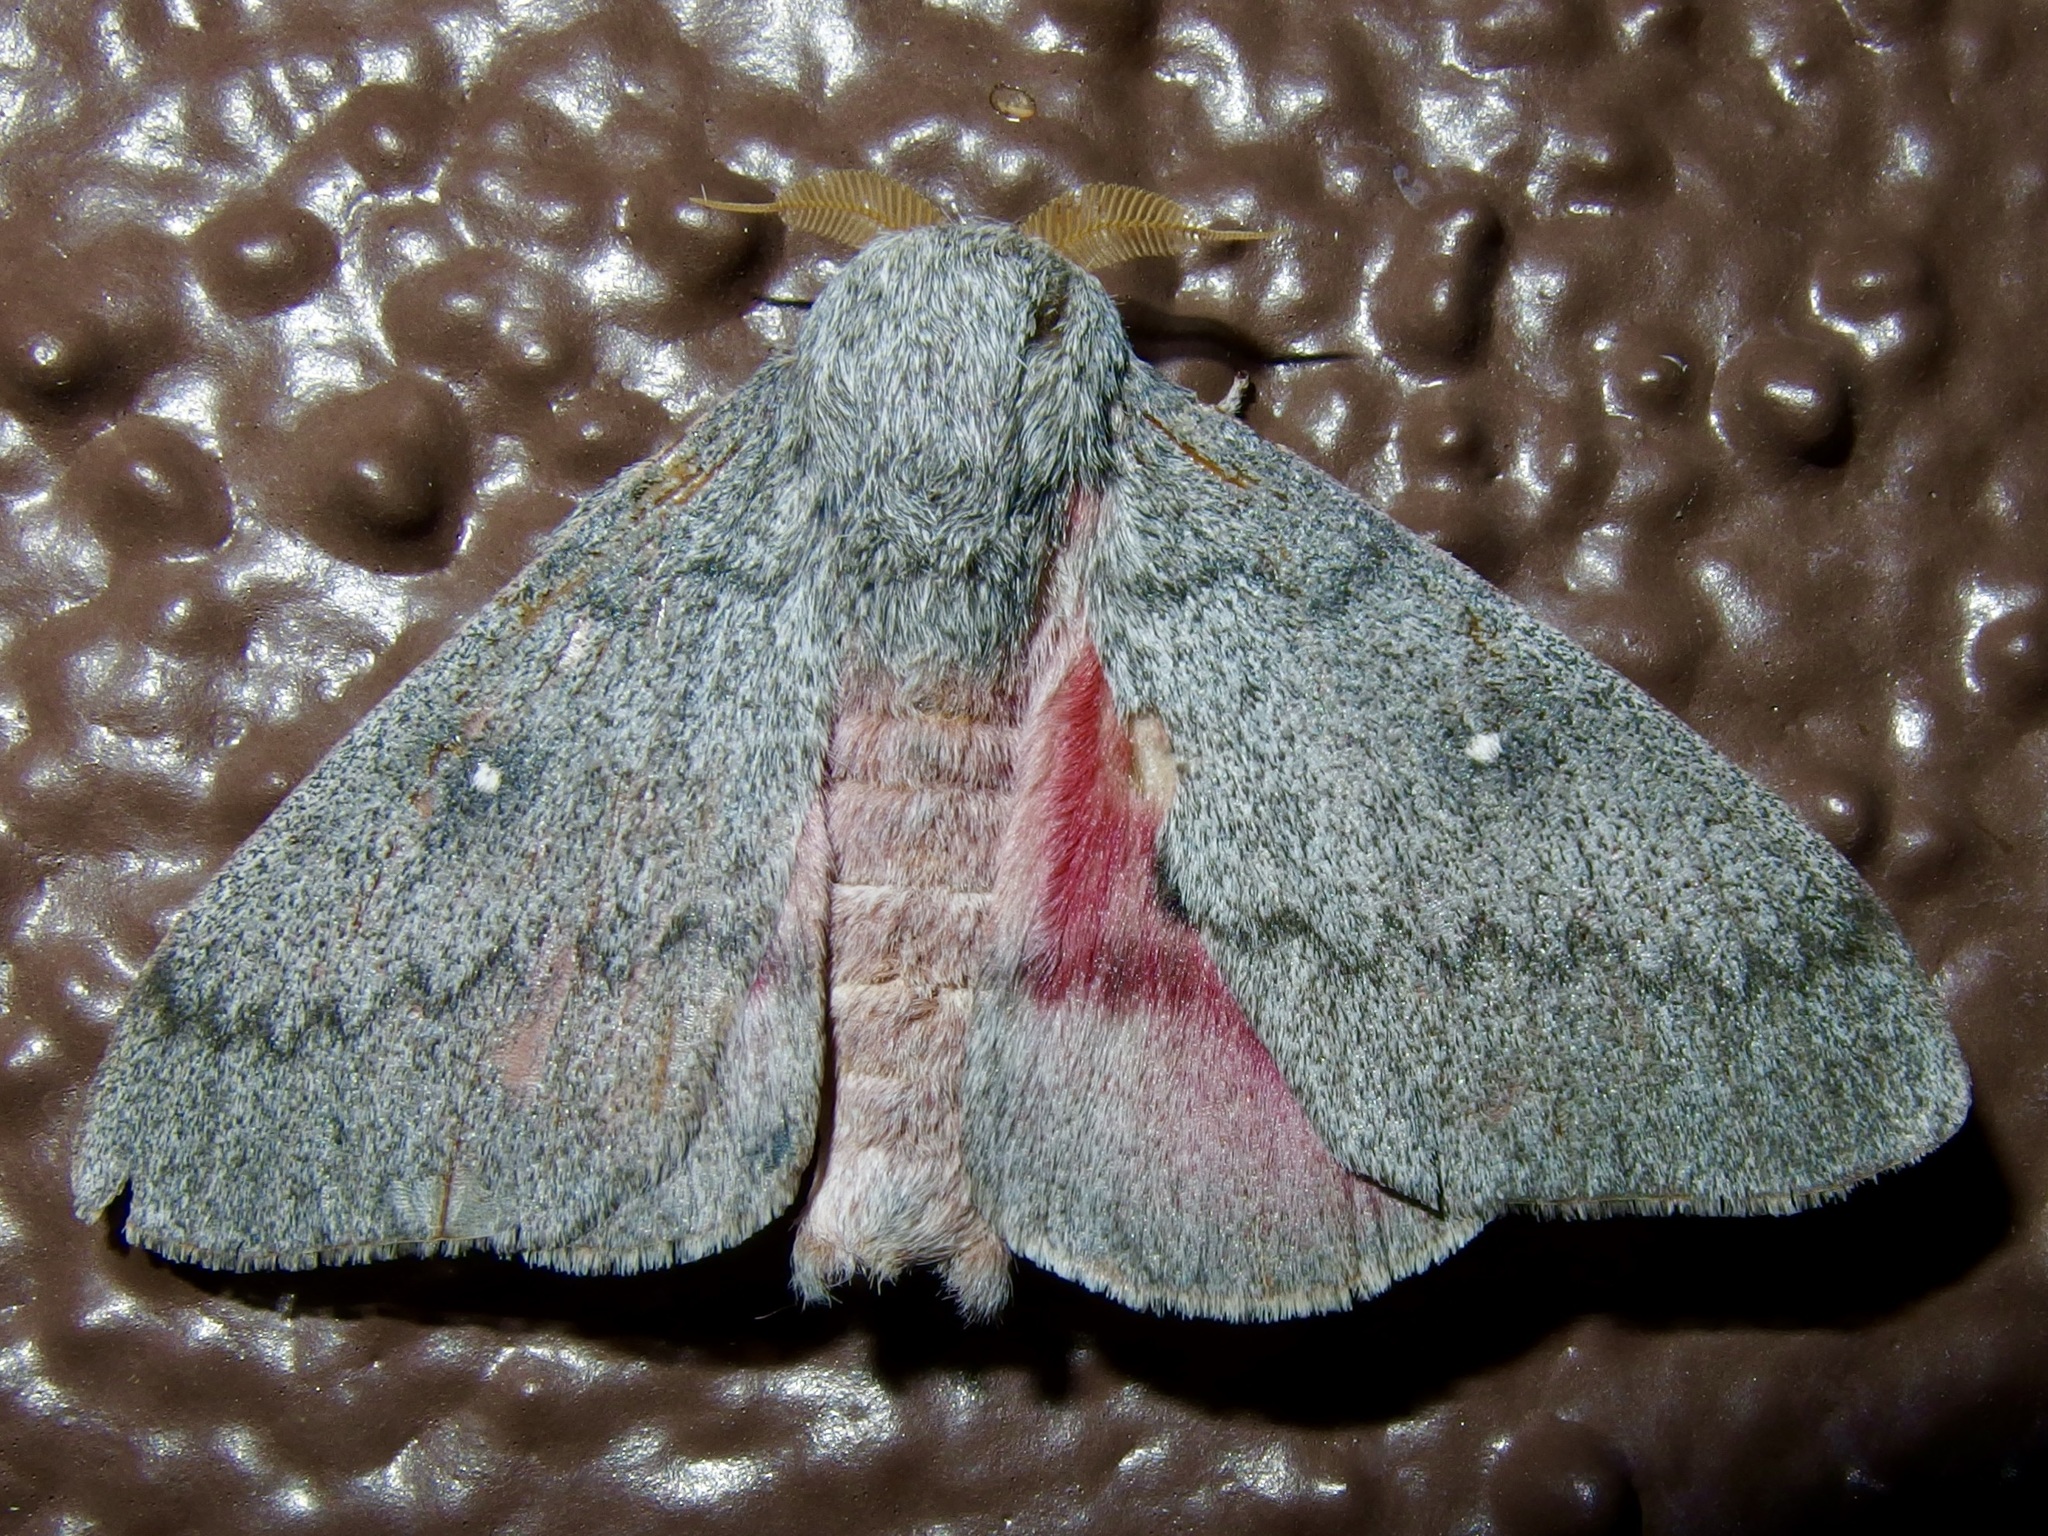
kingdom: Animalia
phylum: Arthropoda
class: Insecta
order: Lepidoptera
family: Saturniidae
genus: Syssphinx
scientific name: Syssphinx hubbardi
